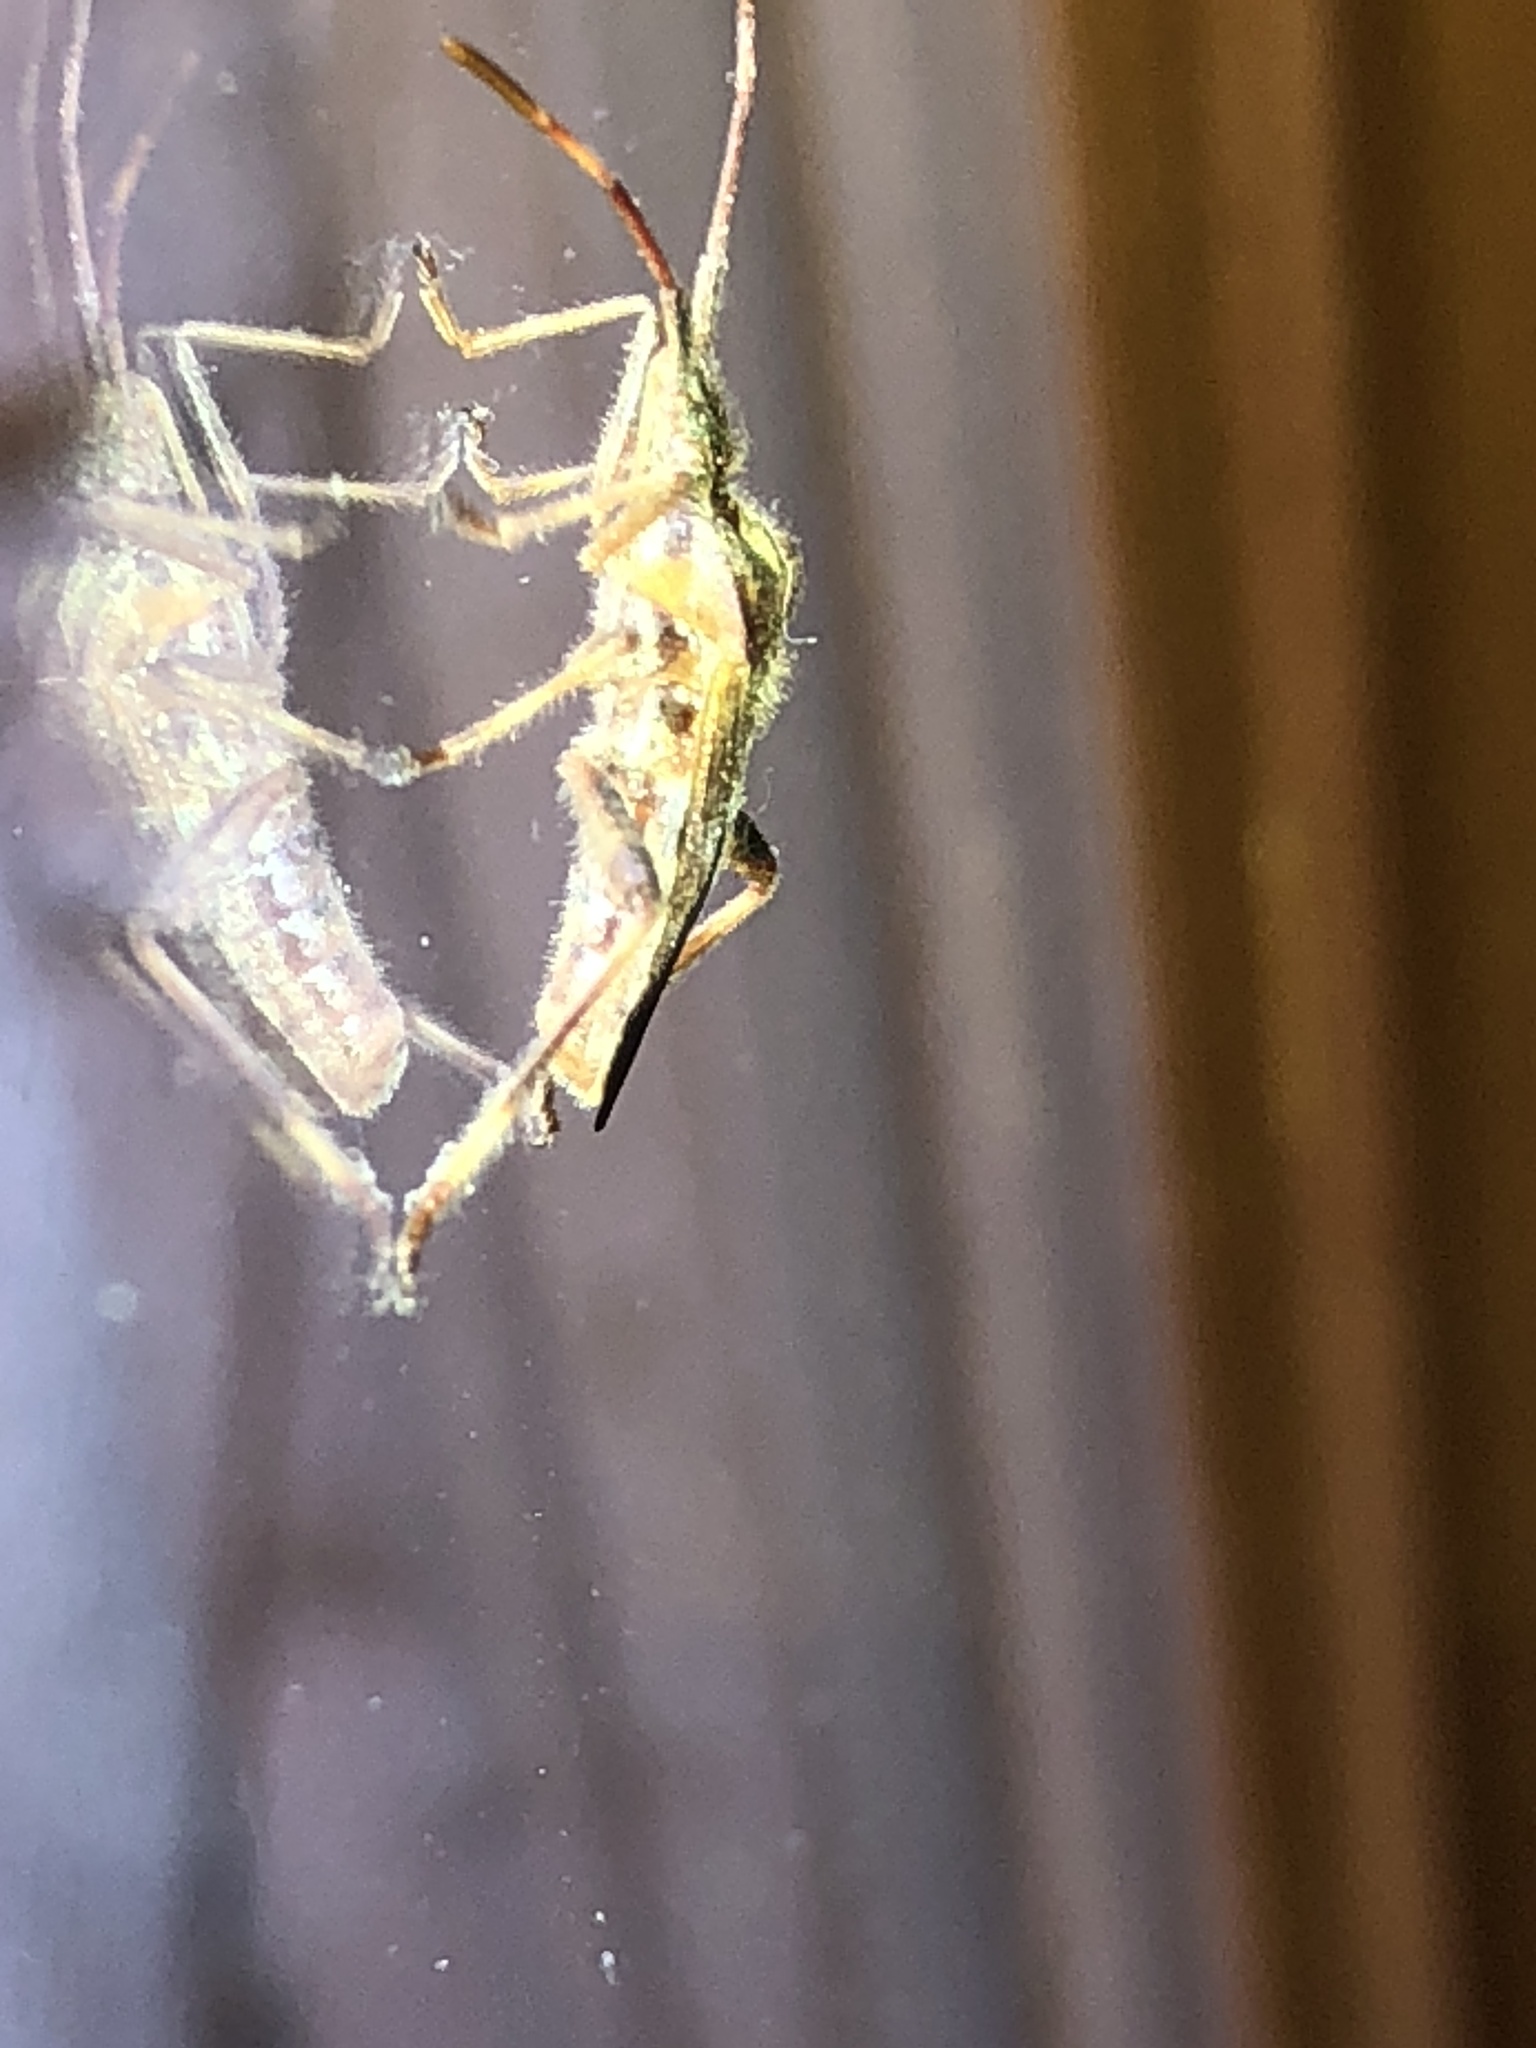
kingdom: Animalia
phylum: Arthropoda
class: Insecta
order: Hemiptera
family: Coreidae
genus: Leptoglossus
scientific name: Leptoglossus occidentalis
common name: Western conifer-seed bug
